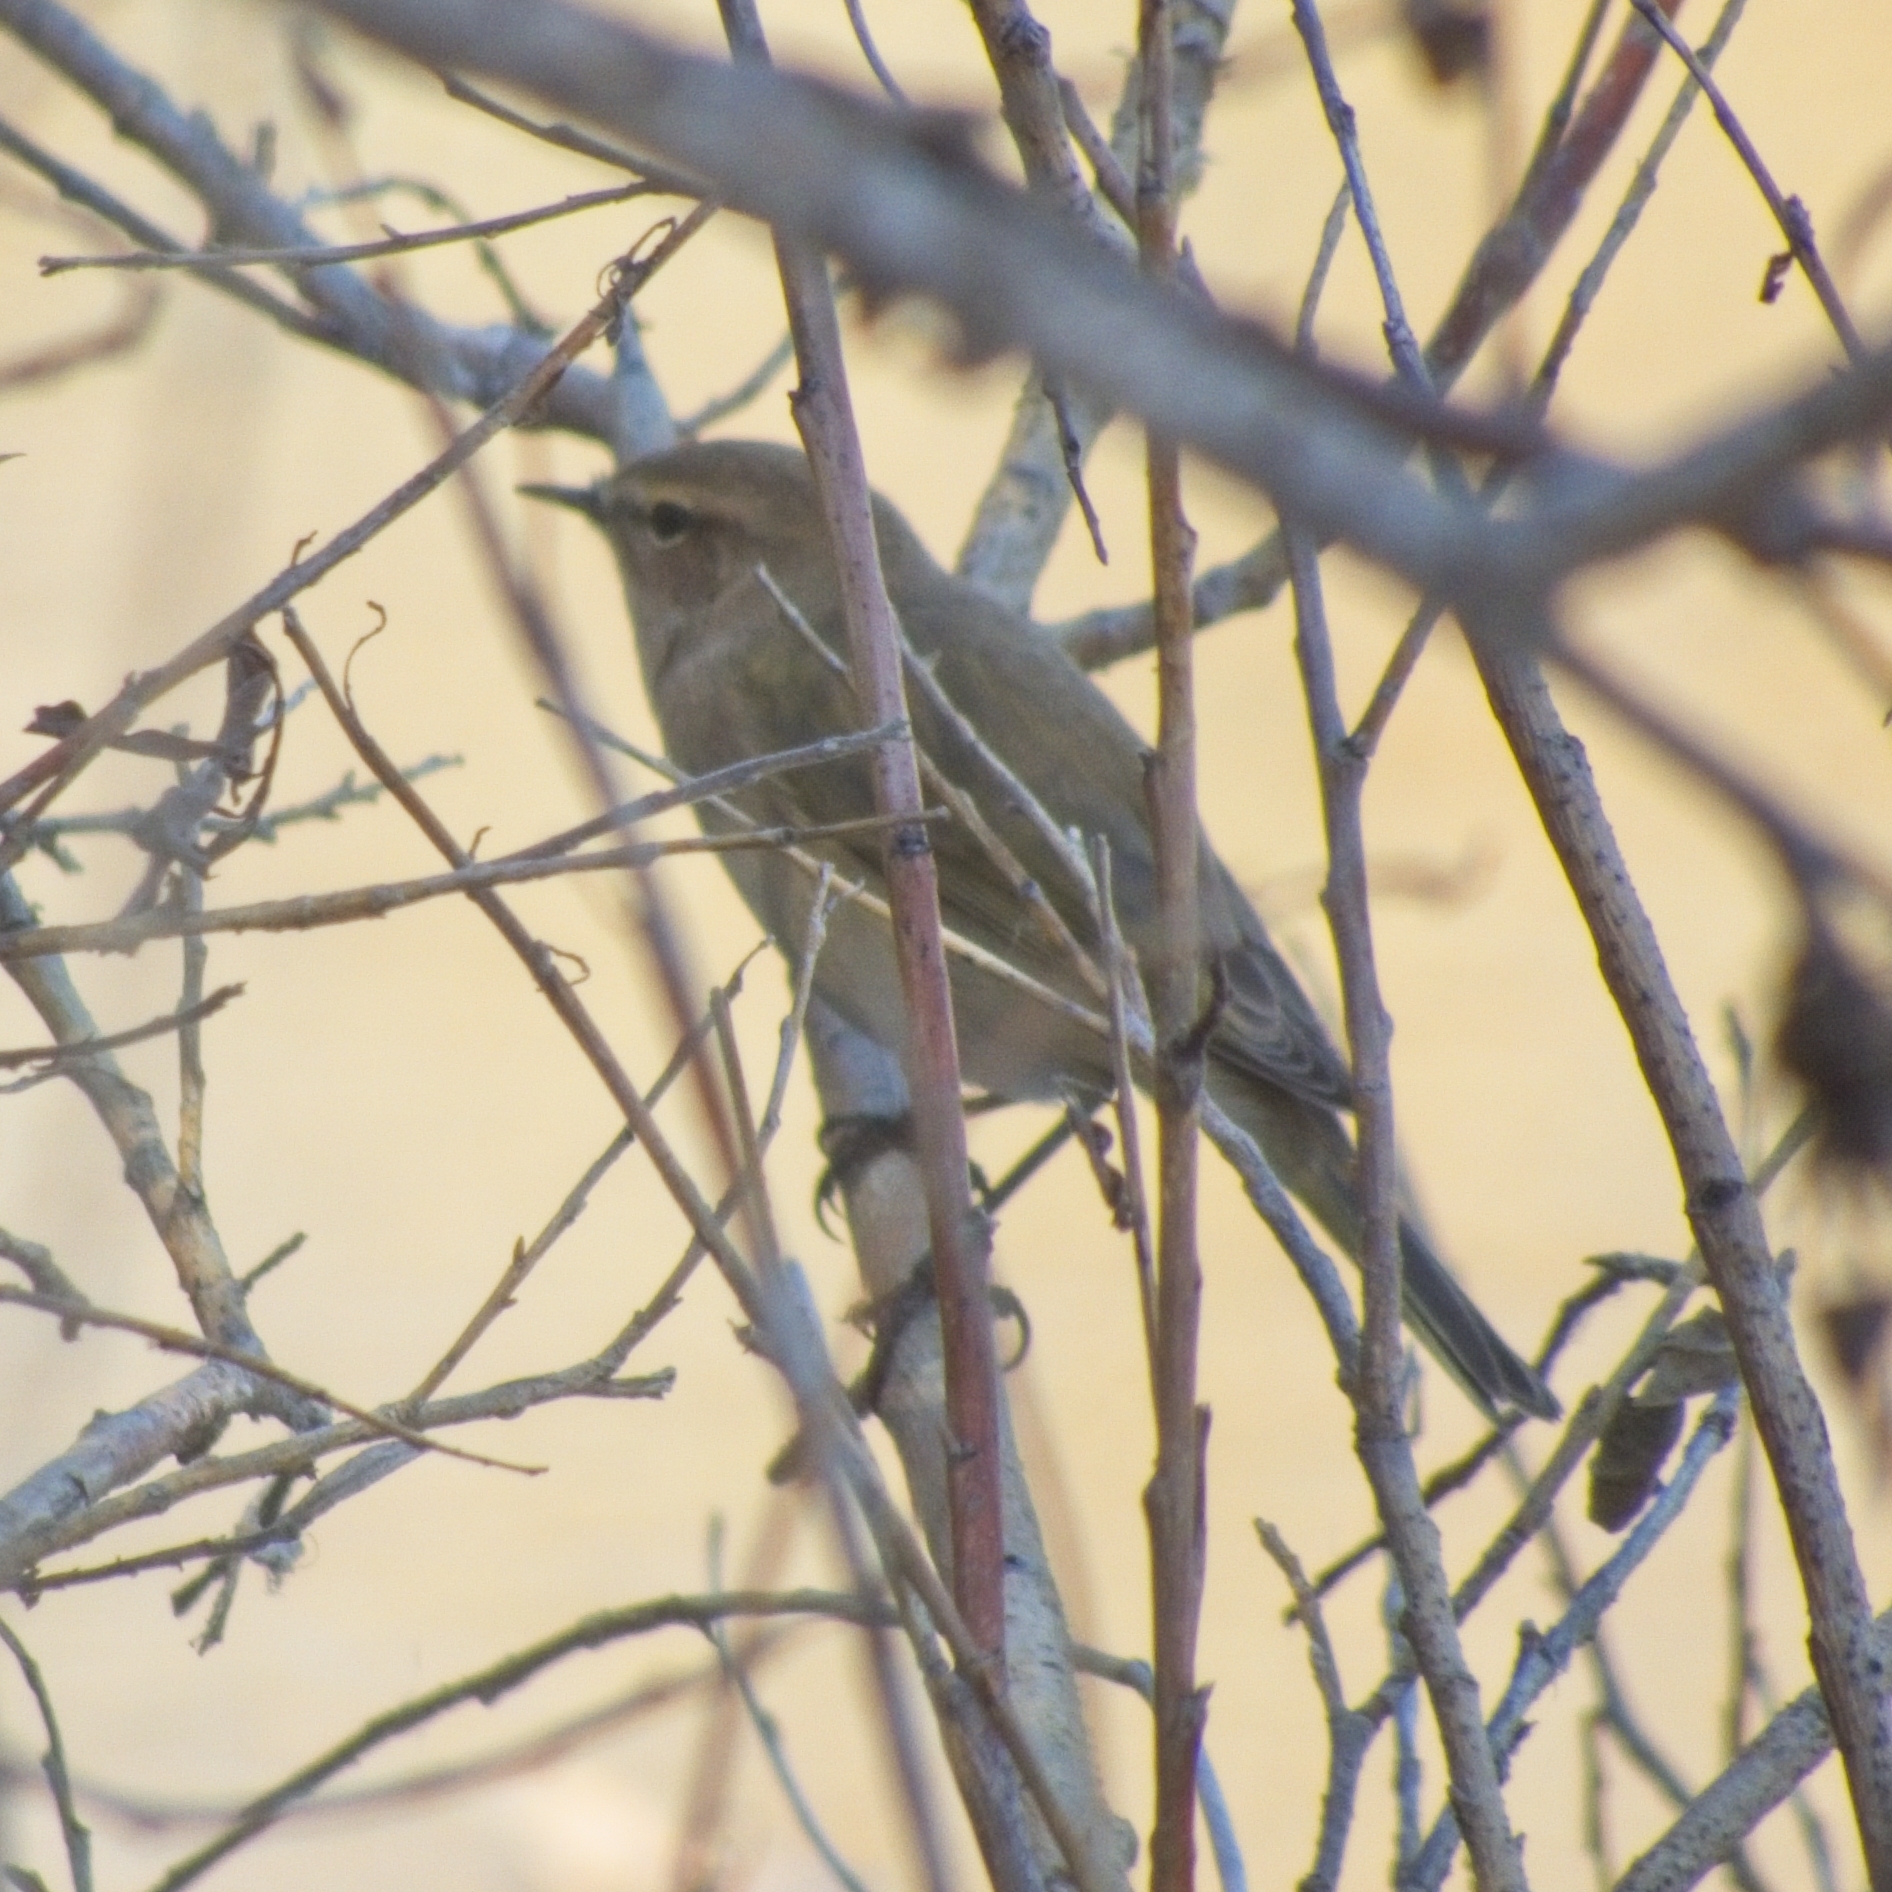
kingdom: Animalia
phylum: Chordata
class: Aves
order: Passeriformes
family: Phylloscopidae
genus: Phylloscopus
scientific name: Phylloscopus collybita
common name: Common chiffchaff
